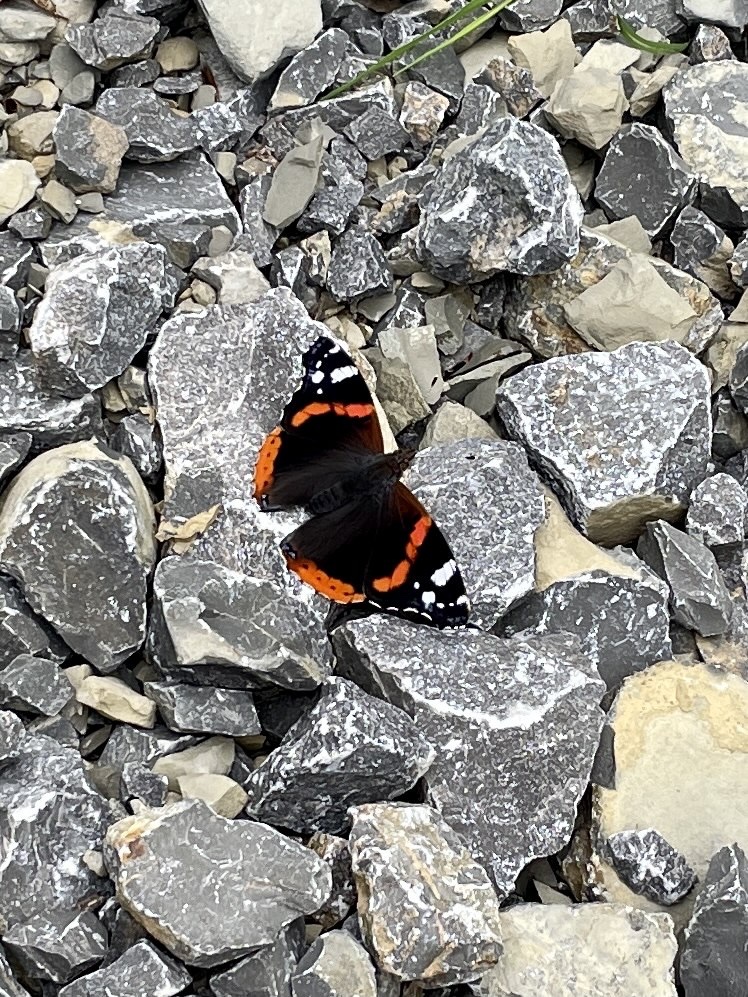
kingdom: Animalia
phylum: Arthropoda
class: Insecta
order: Lepidoptera
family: Nymphalidae
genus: Vanessa
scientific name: Vanessa atalanta
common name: Red admiral
